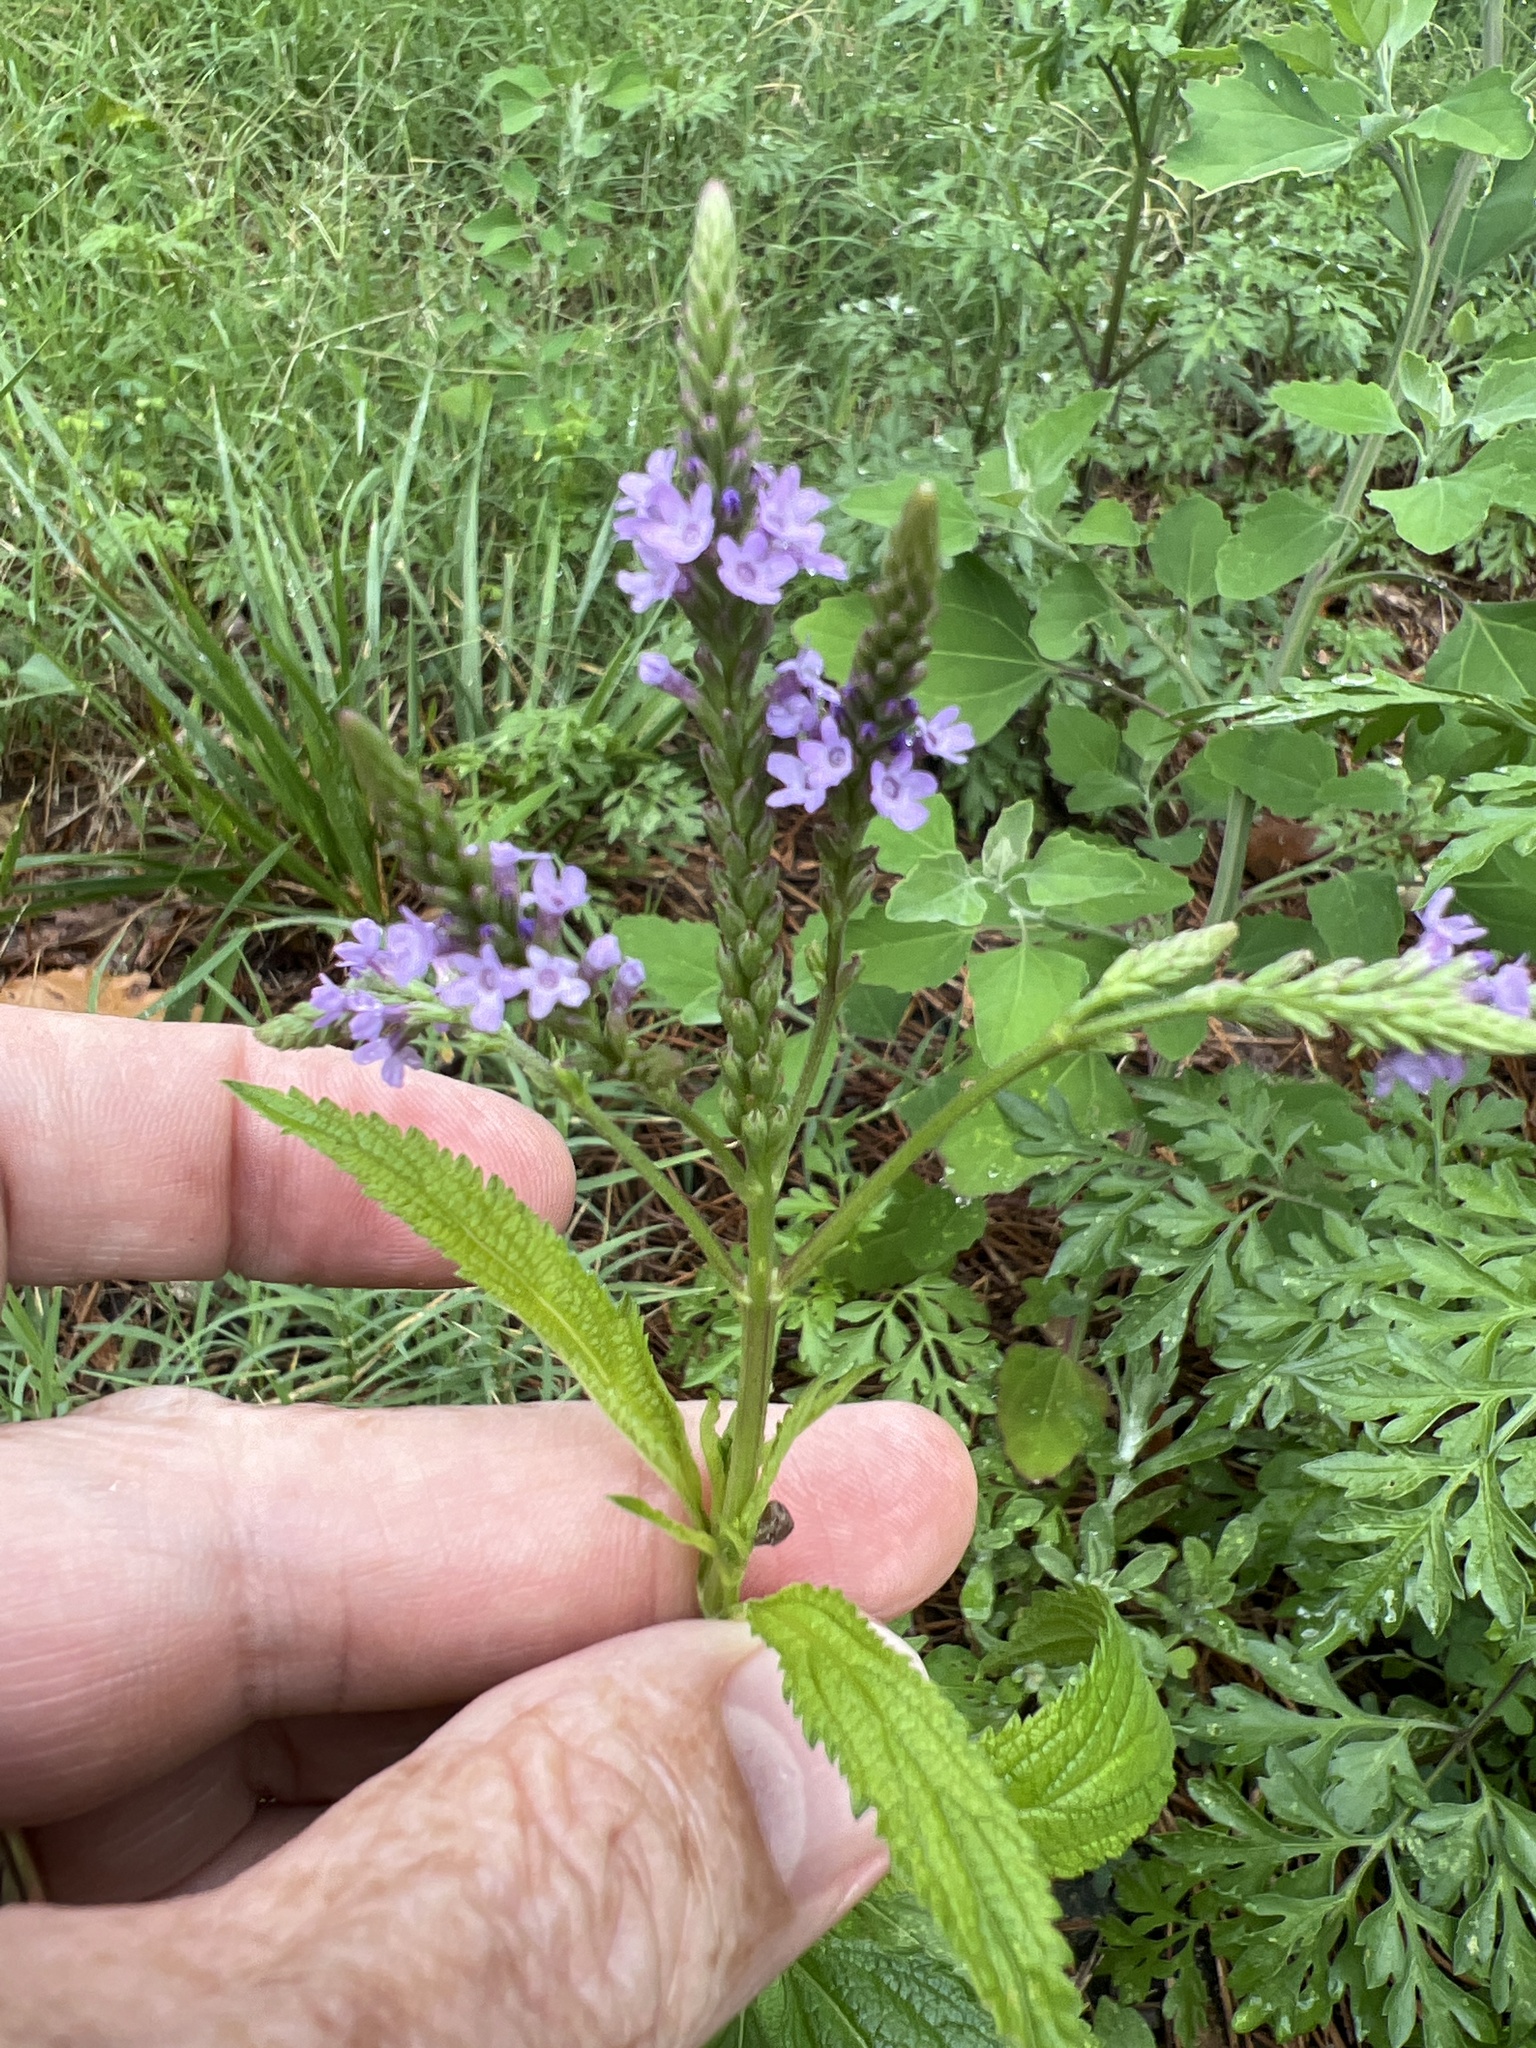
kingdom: Plantae
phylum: Tracheophyta
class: Magnoliopsida
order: Lamiales
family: Verbenaceae
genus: Verbena
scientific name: Verbena hastata
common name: American blue vervain
